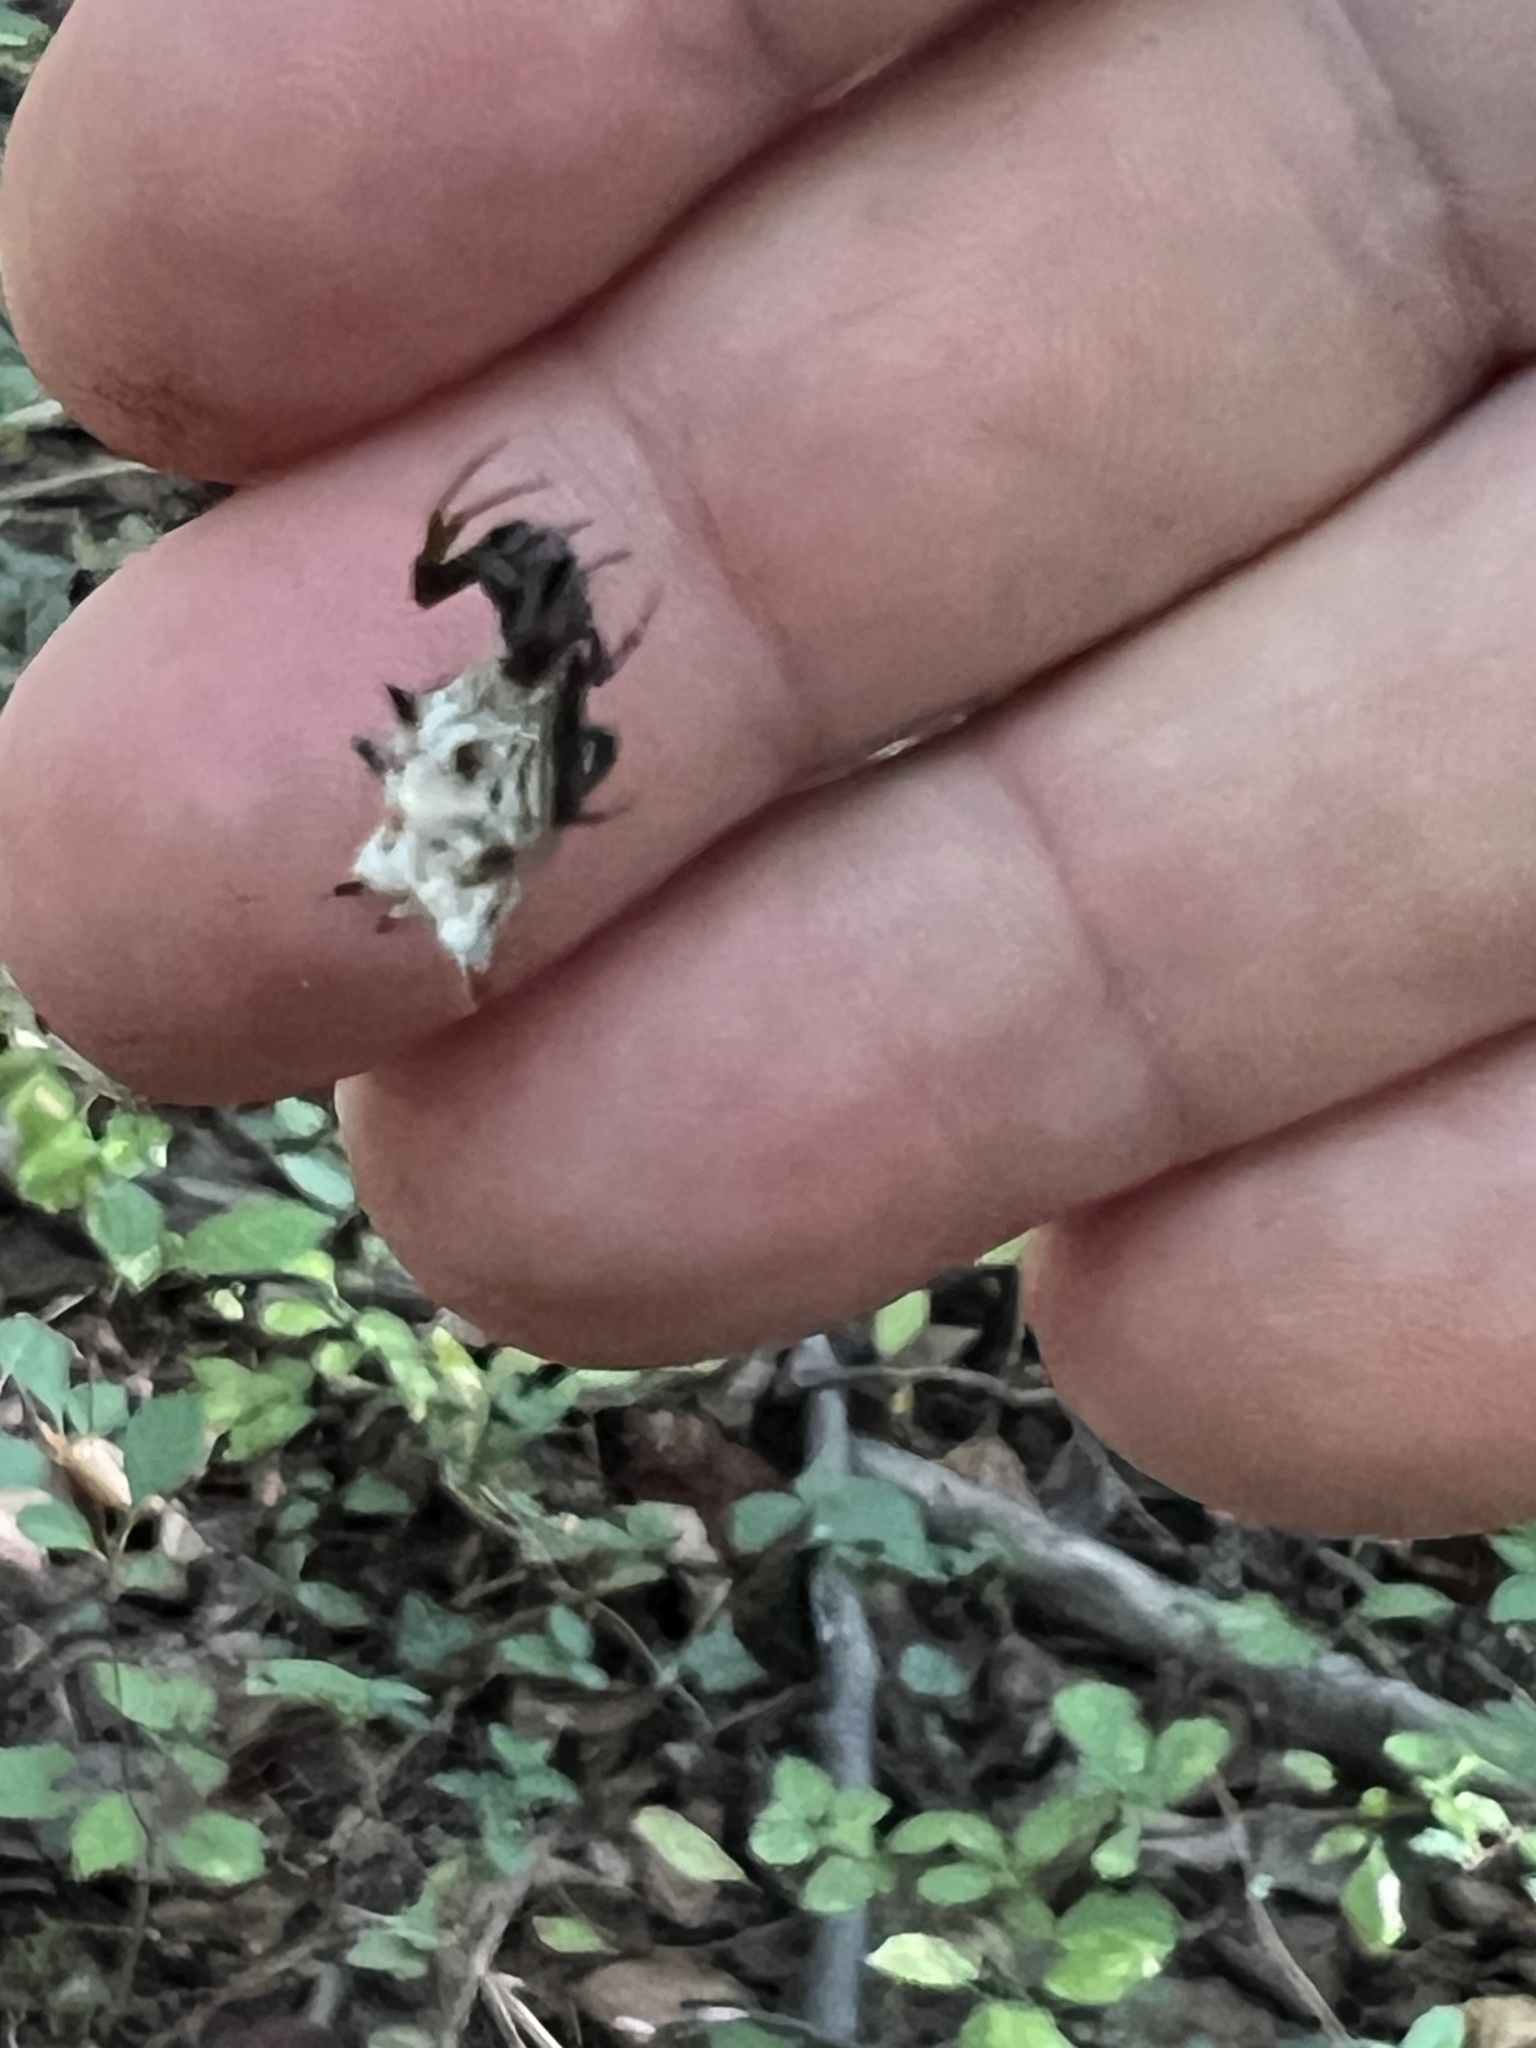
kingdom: Animalia
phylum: Arthropoda
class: Arachnida
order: Araneae
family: Araneidae
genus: Micrathena
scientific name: Micrathena gracilis
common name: Orb weavers
